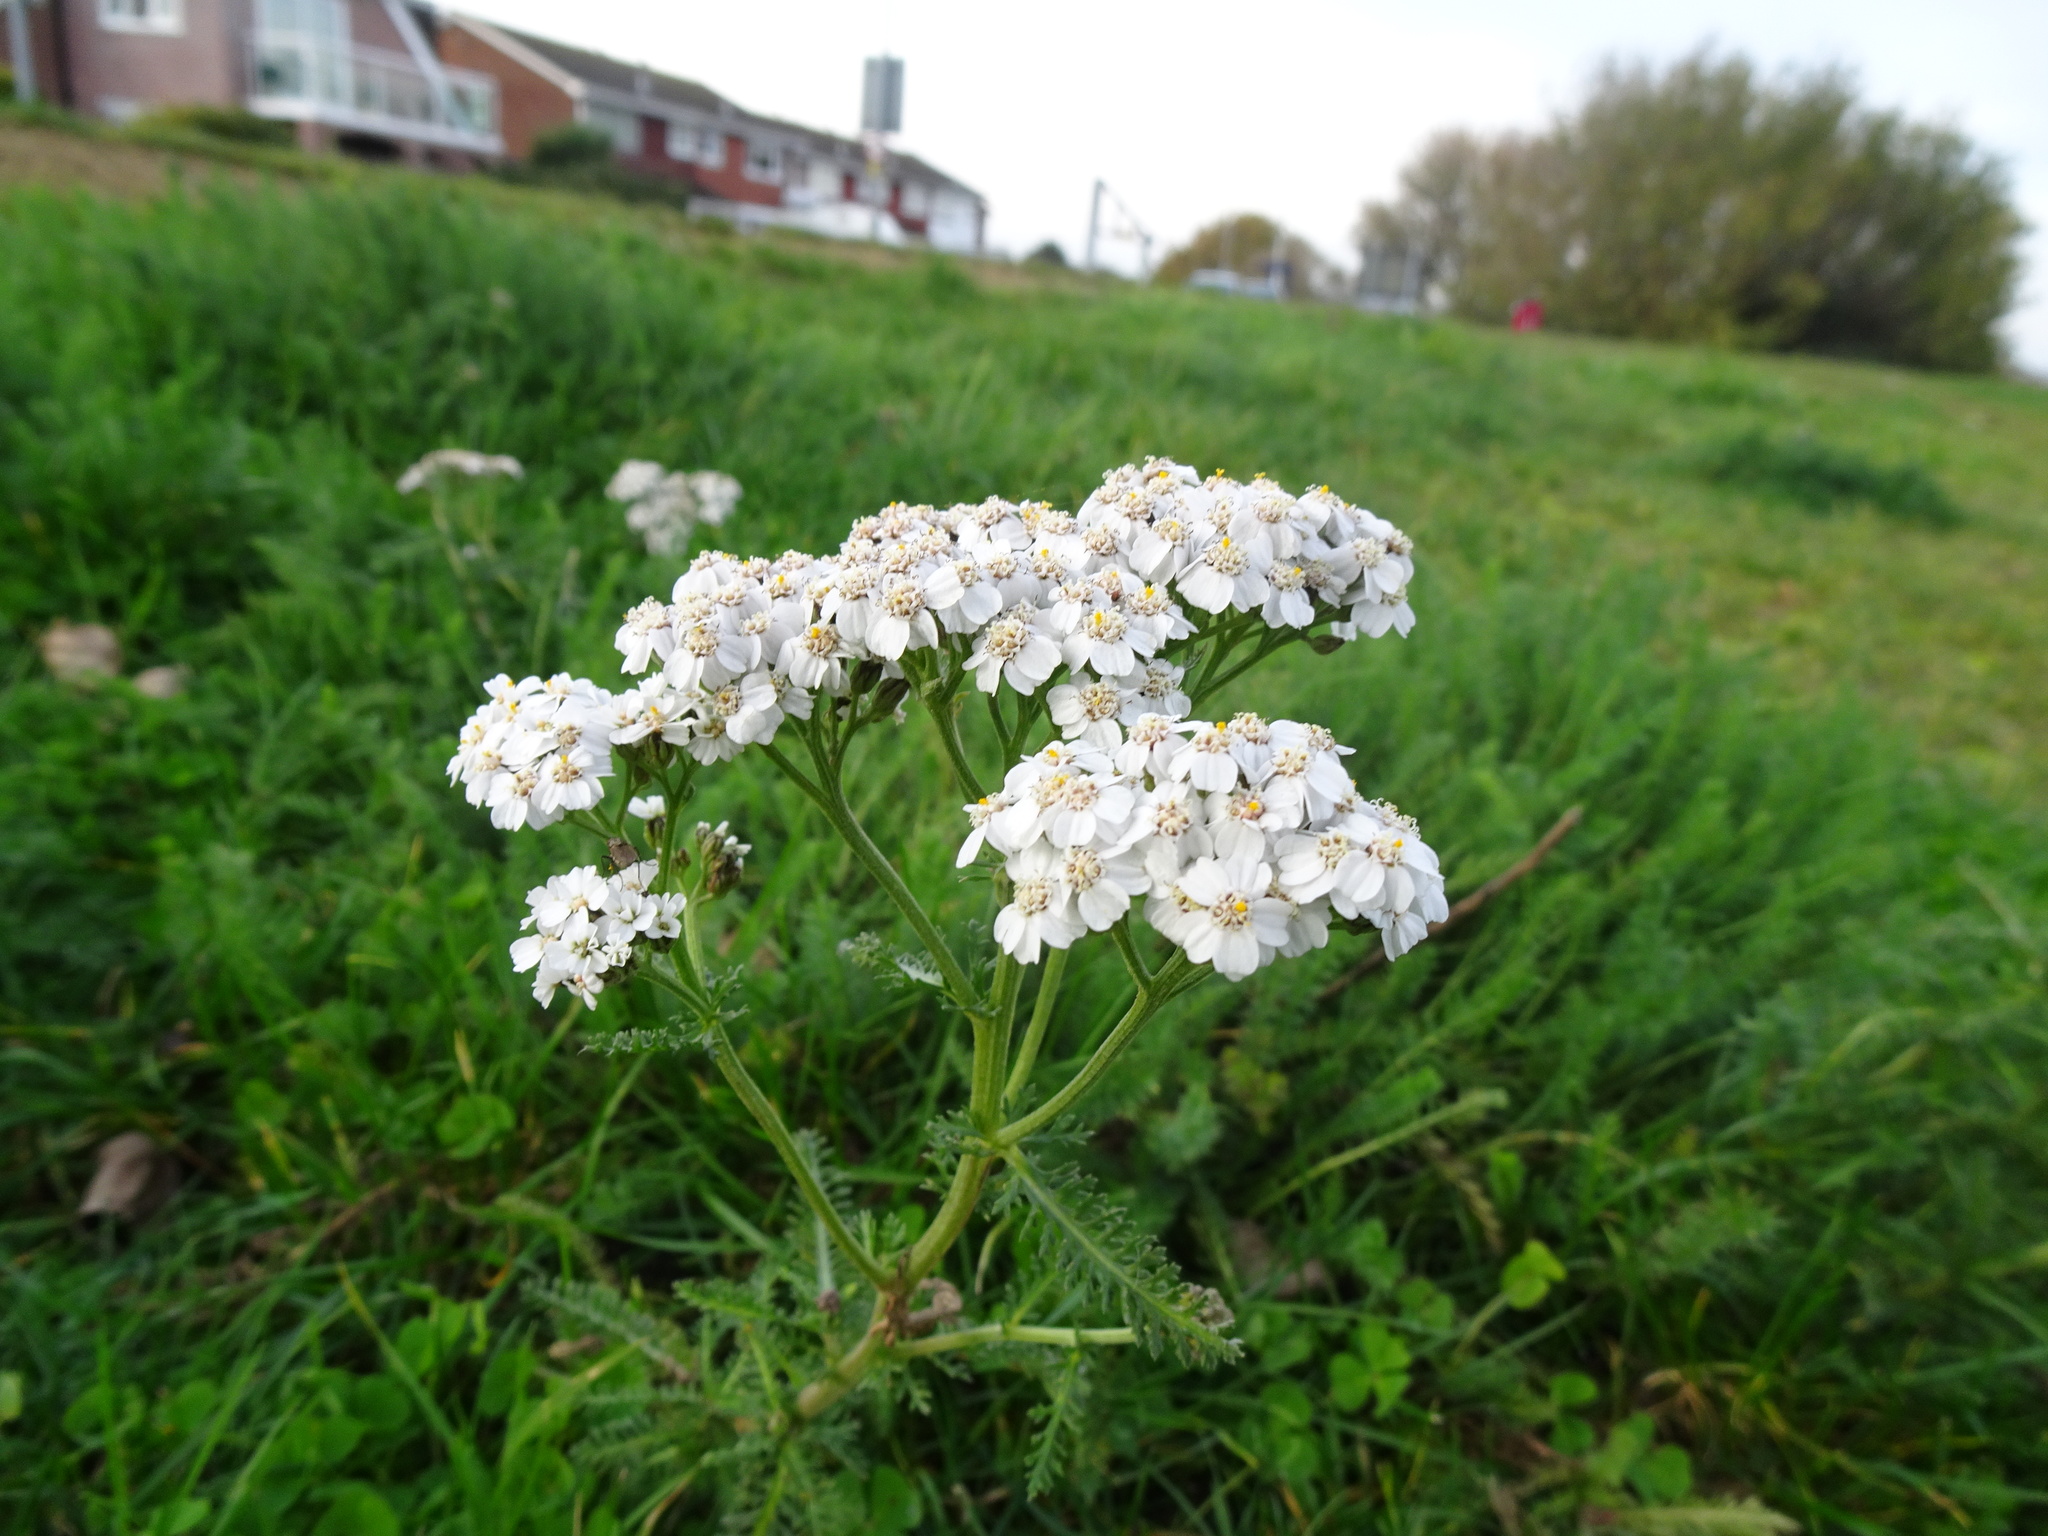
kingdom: Plantae
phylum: Tracheophyta
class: Magnoliopsida
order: Asterales
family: Asteraceae
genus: Achillea
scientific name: Achillea millefolium
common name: Yarrow
